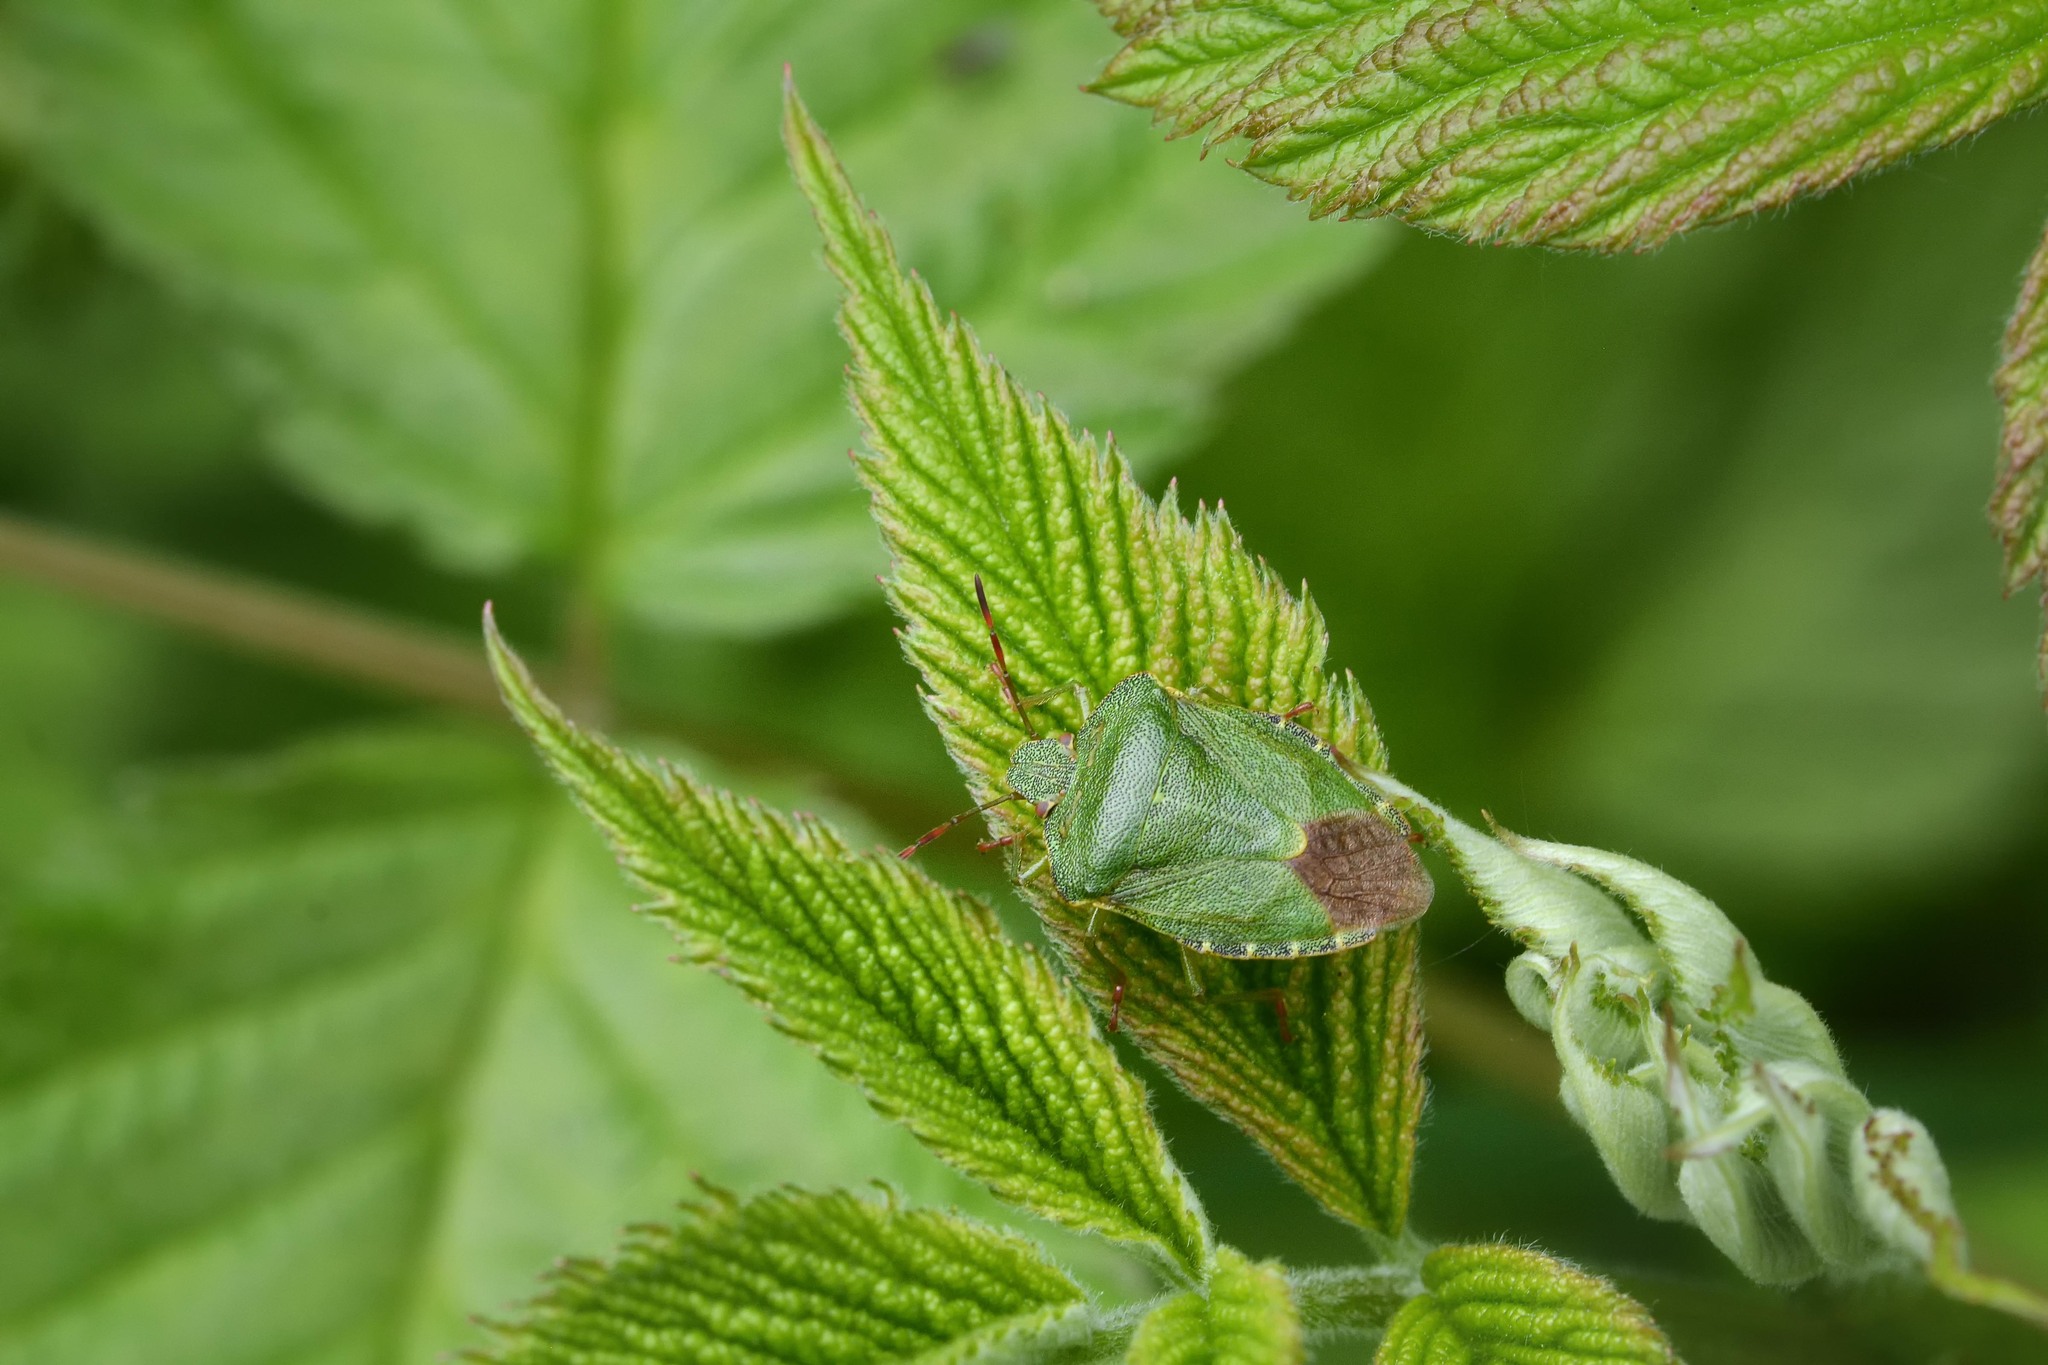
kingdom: Animalia
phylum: Arthropoda
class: Insecta
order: Hemiptera
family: Pentatomidae
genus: Palomena
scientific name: Palomena prasina
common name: Green shieldbug
